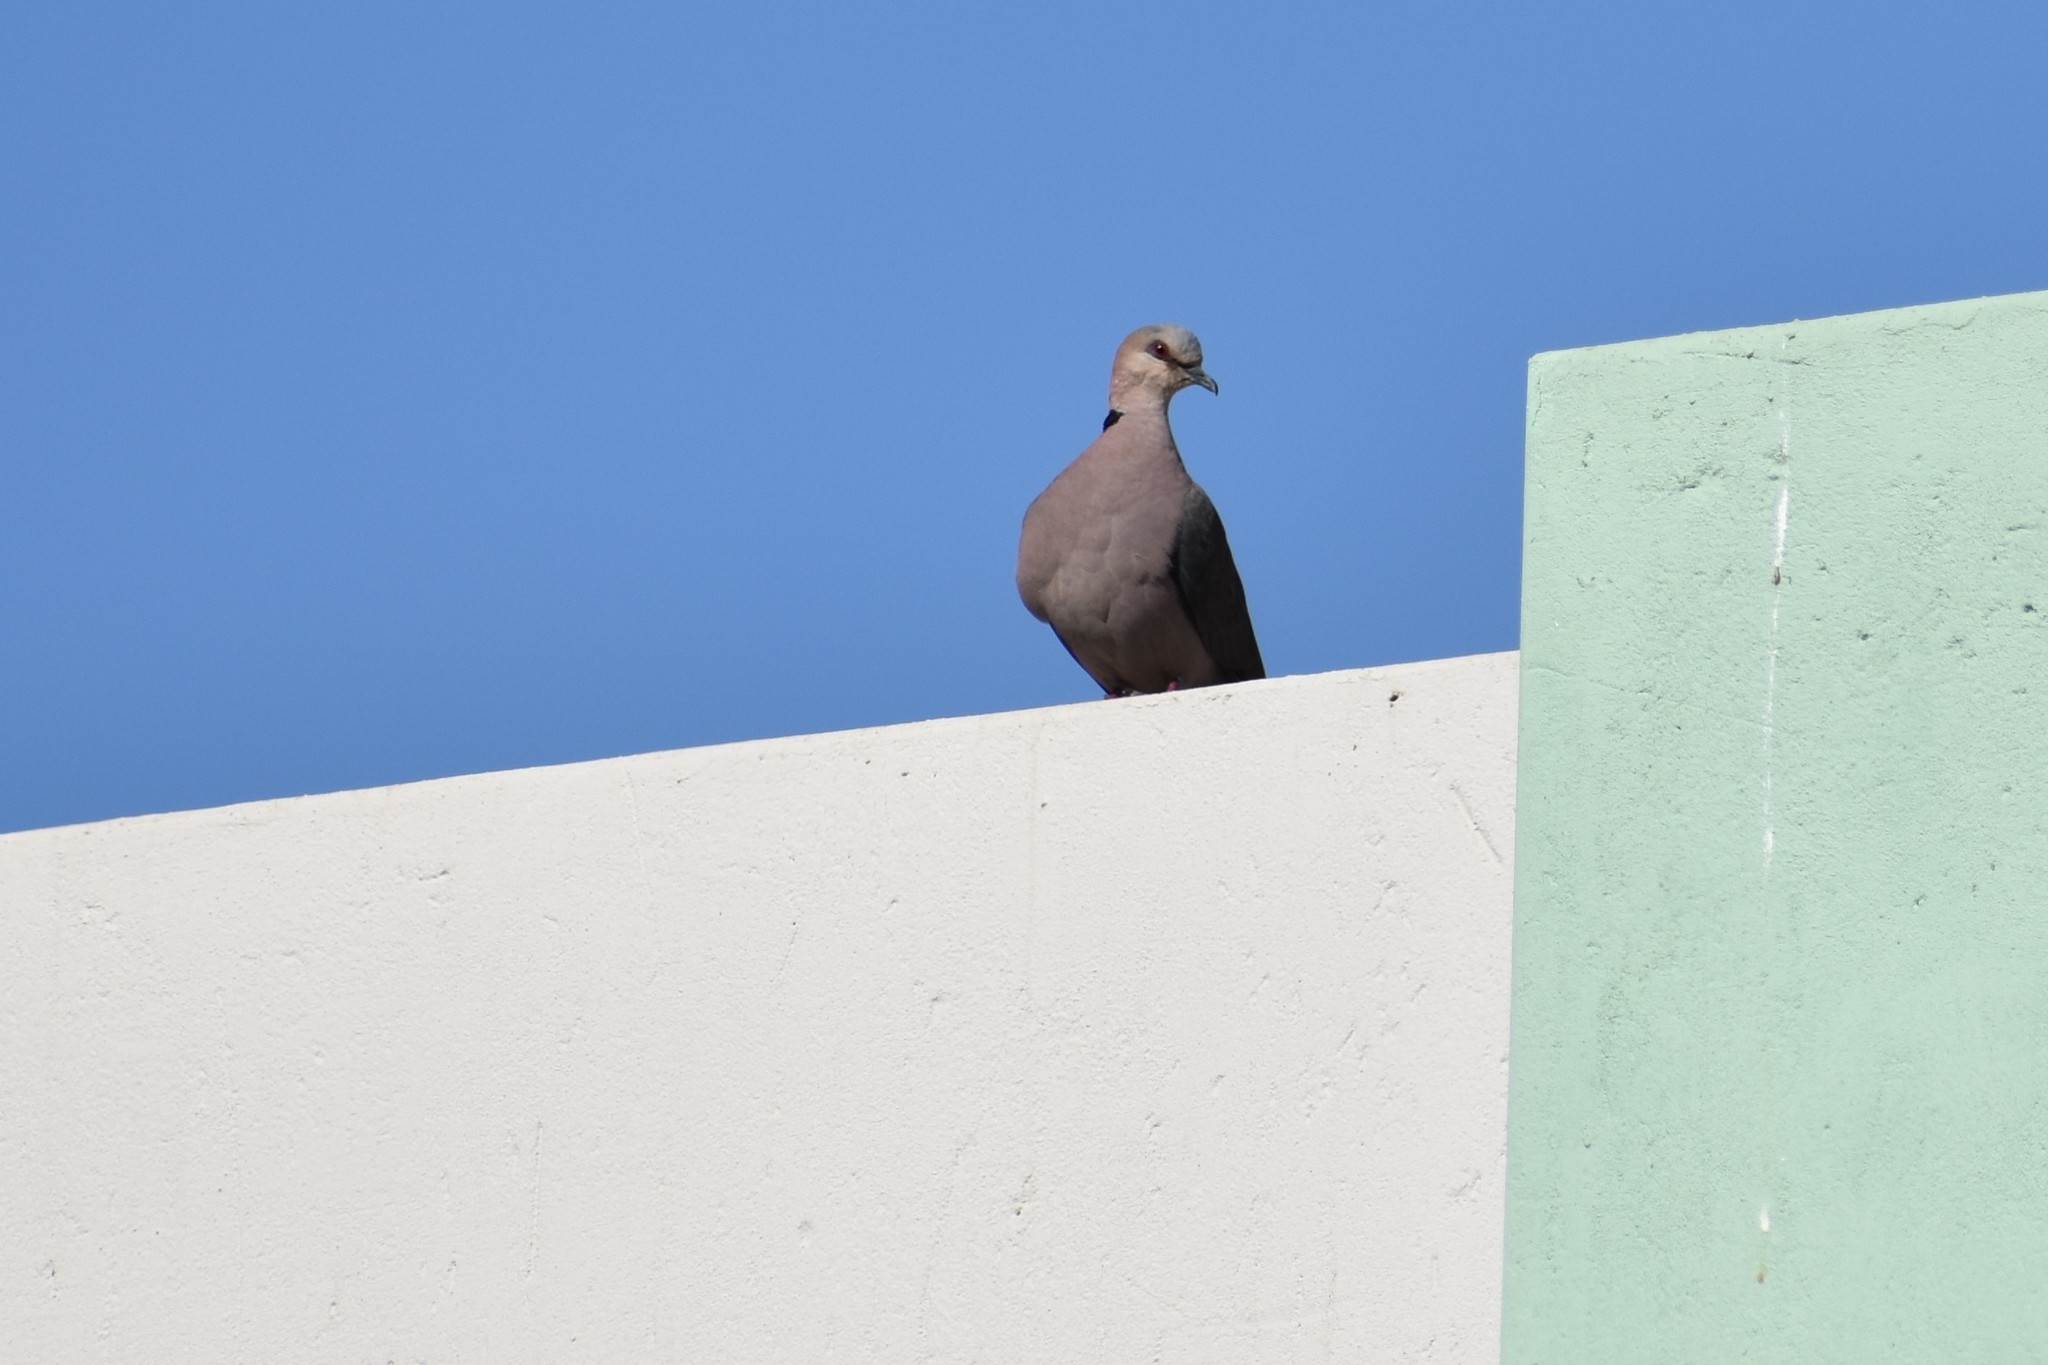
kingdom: Animalia
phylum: Chordata
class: Aves
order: Columbiformes
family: Columbidae
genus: Streptopelia
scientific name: Streptopelia semitorquata
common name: Red-eyed dove
